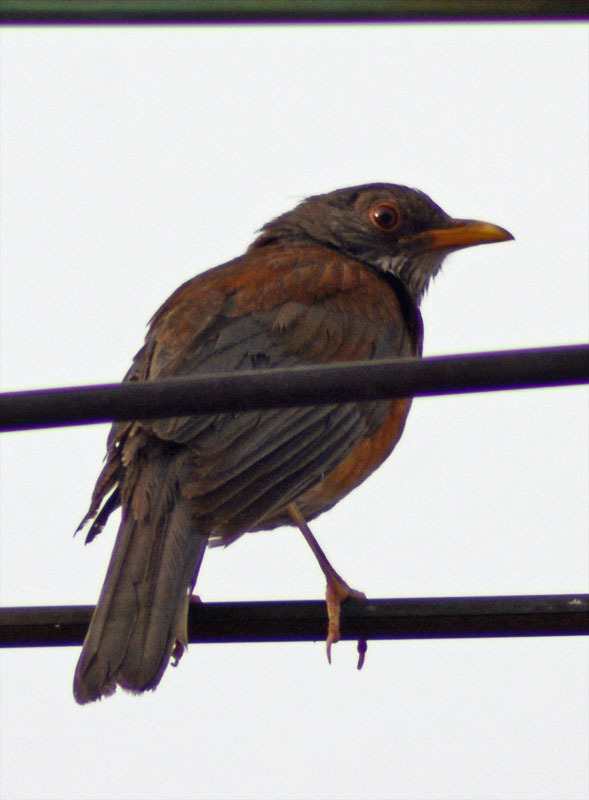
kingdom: Animalia
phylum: Chordata
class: Aves
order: Passeriformes
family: Turdidae
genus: Turdus
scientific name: Turdus rufopalliatus
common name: Rufous-backed robin
